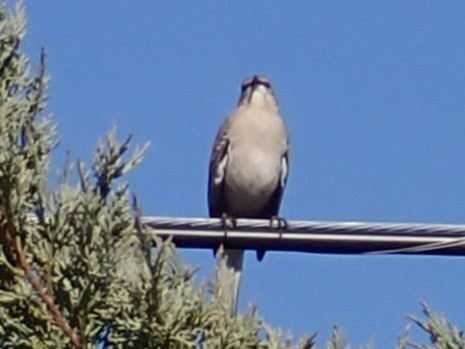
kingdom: Animalia
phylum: Chordata
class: Aves
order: Passeriformes
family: Mimidae
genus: Mimus
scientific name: Mimus polyglottos
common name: Northern mockingbird
